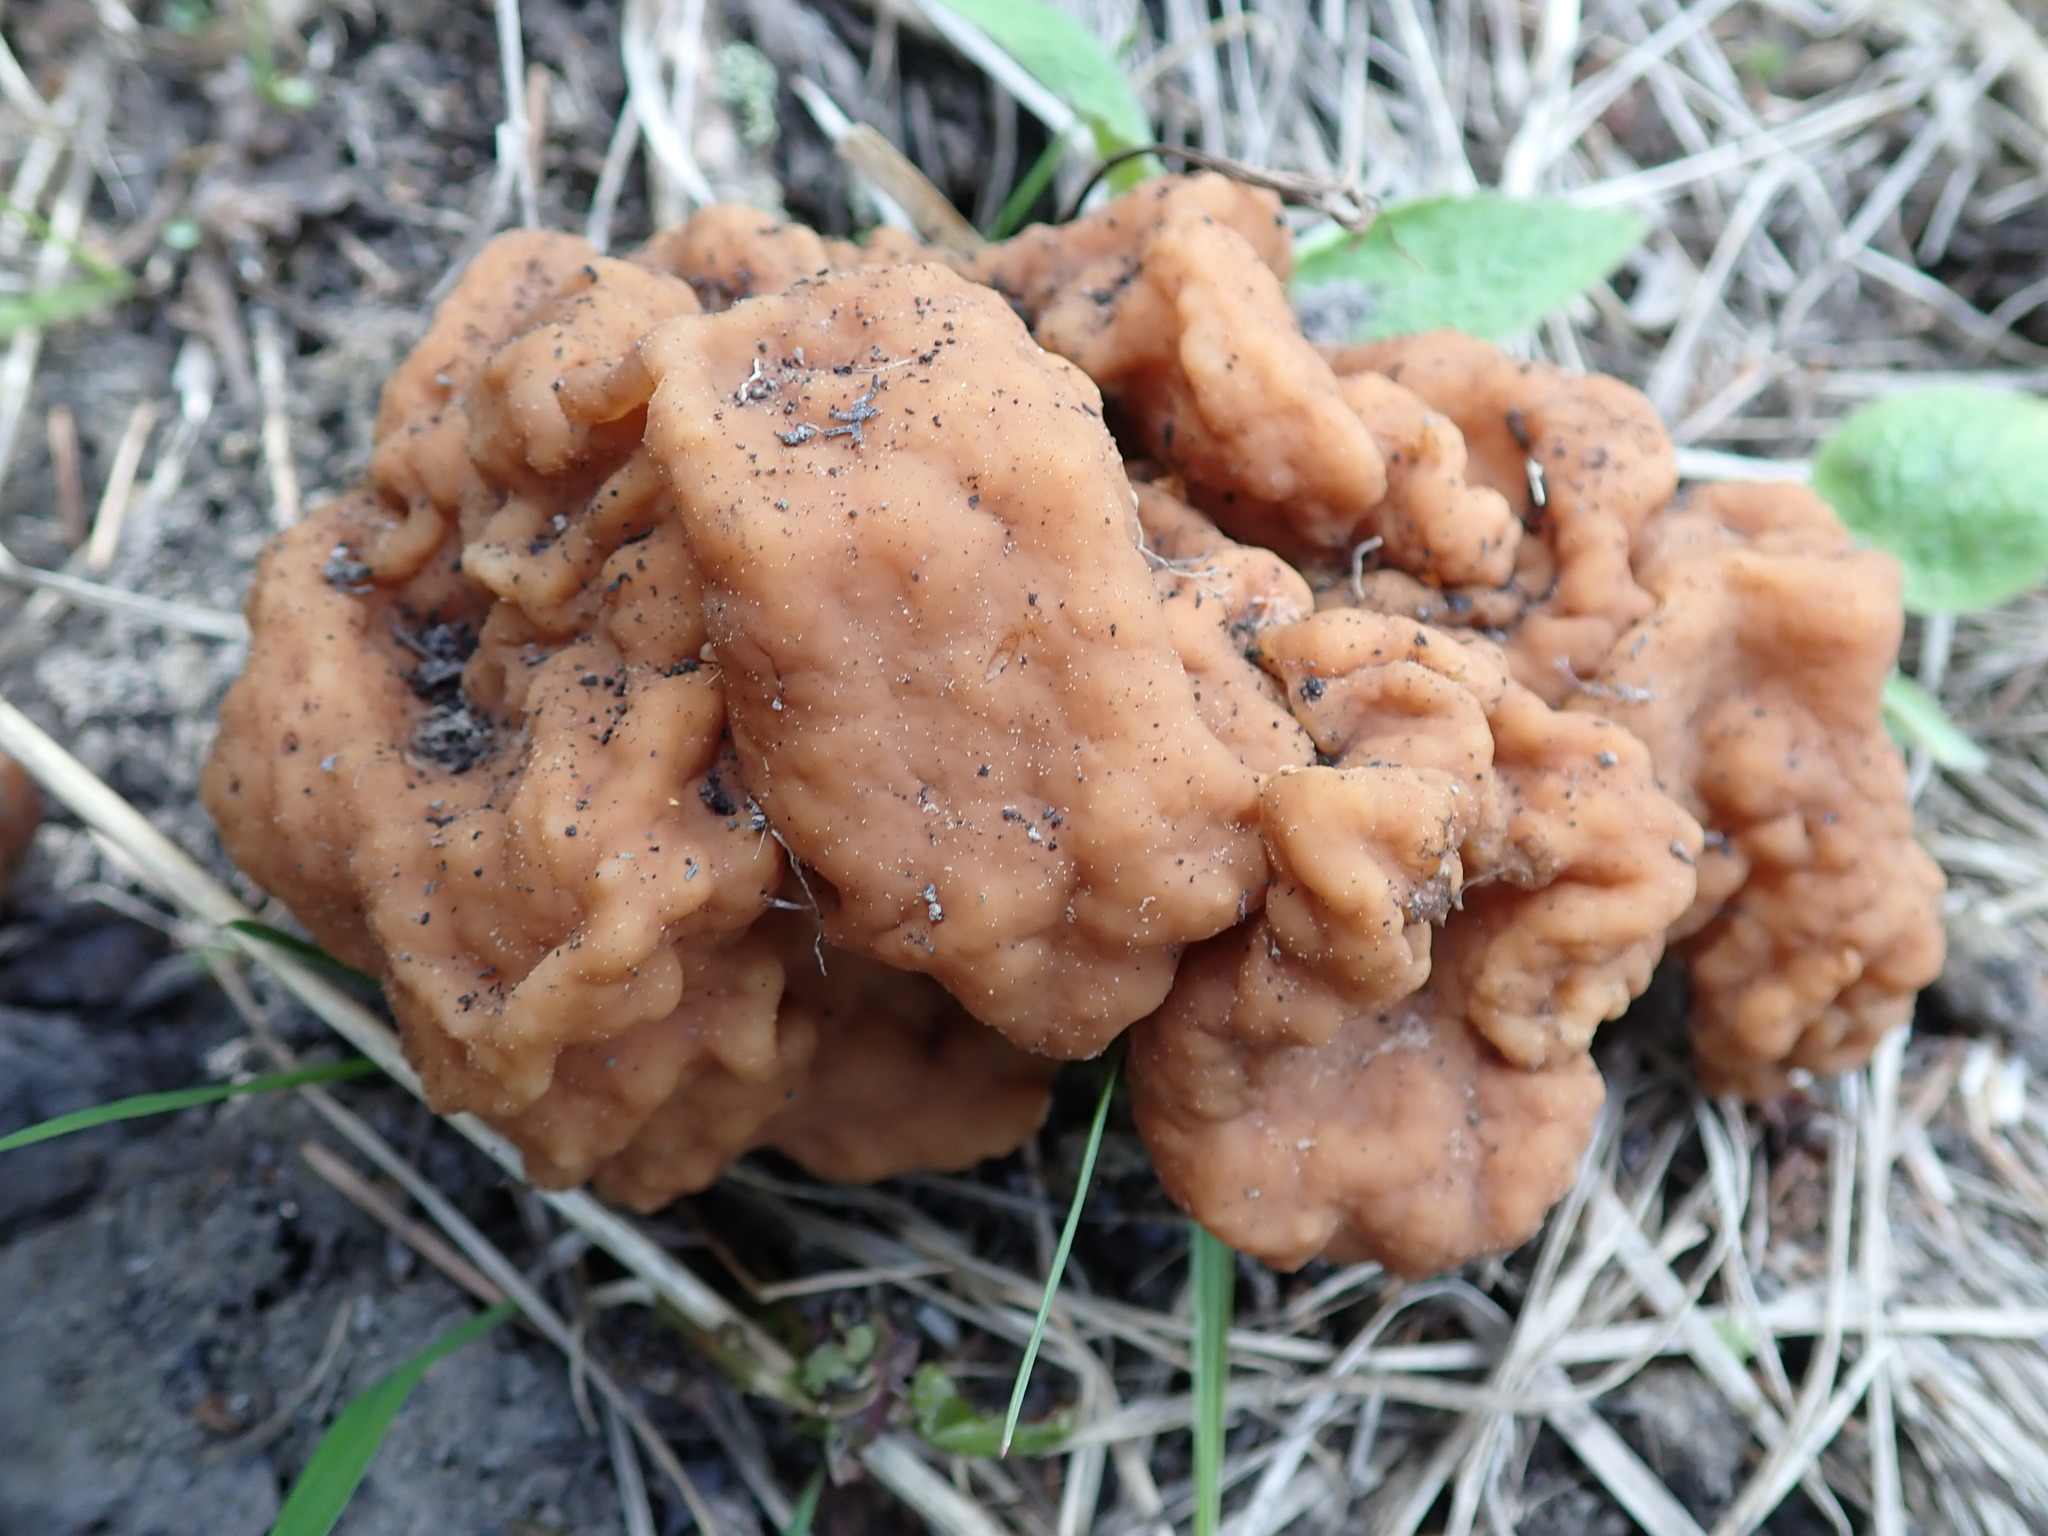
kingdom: Fungi
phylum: Ascomycota
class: Pezizomycetes
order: Pezizales
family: Discinaceae
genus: Discina
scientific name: Discina montana
